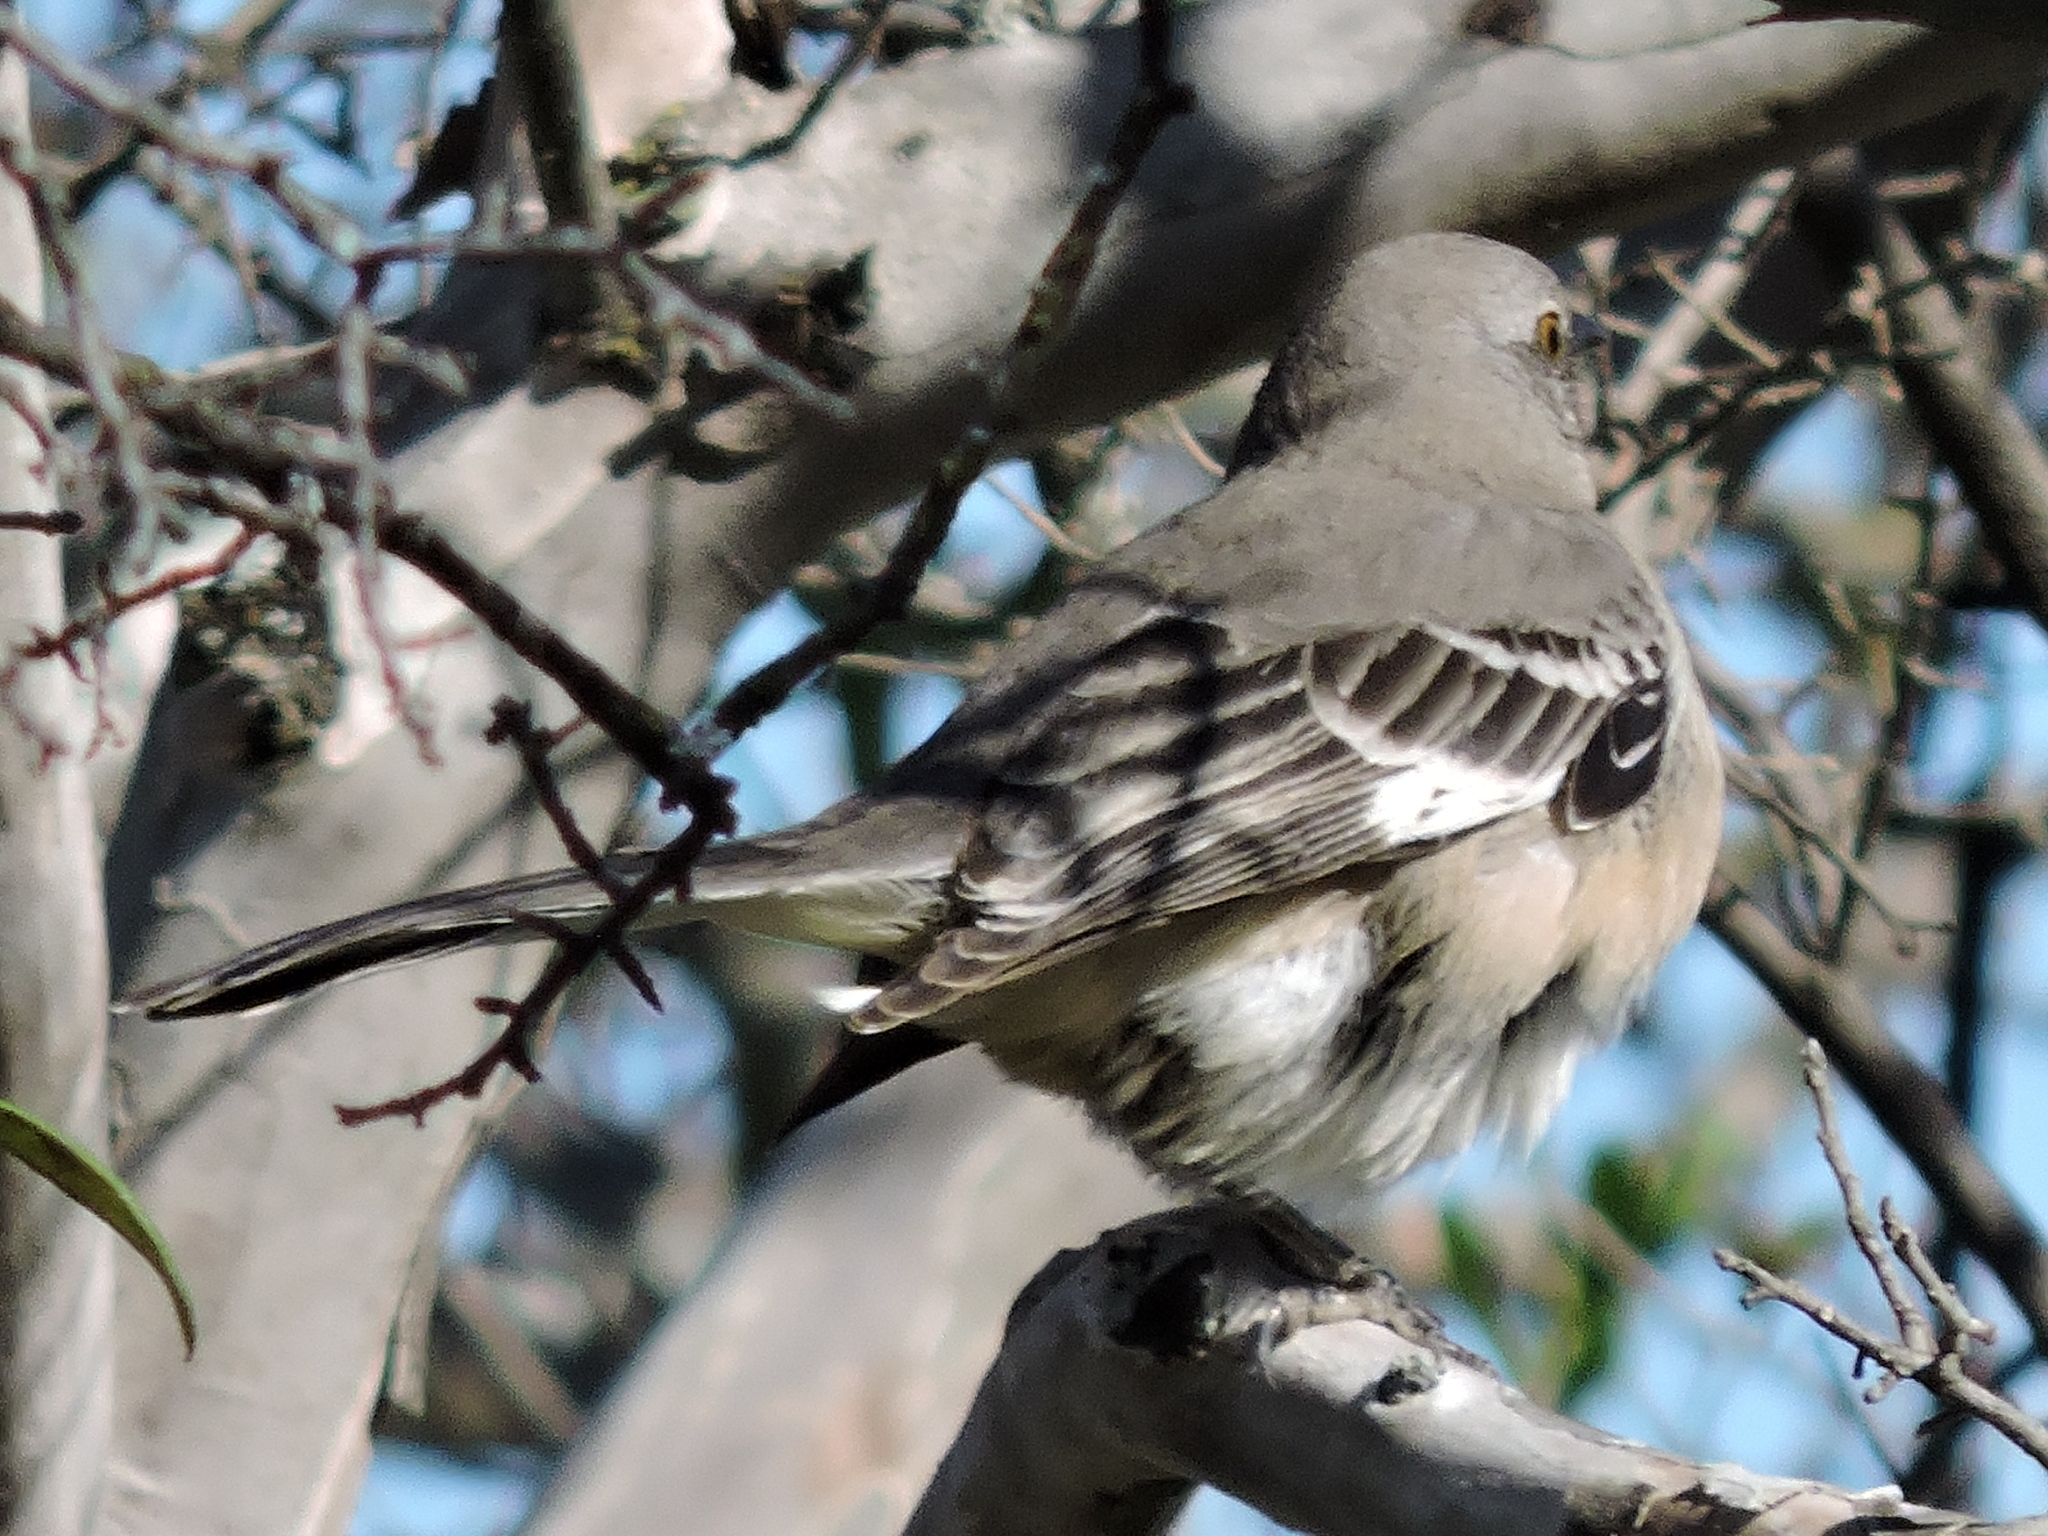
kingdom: Animalia
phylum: Chordata
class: Aves
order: Passeriformes
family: Mimidae
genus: Mimus
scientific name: Mimus polyglottos
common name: Northern mockingbird
